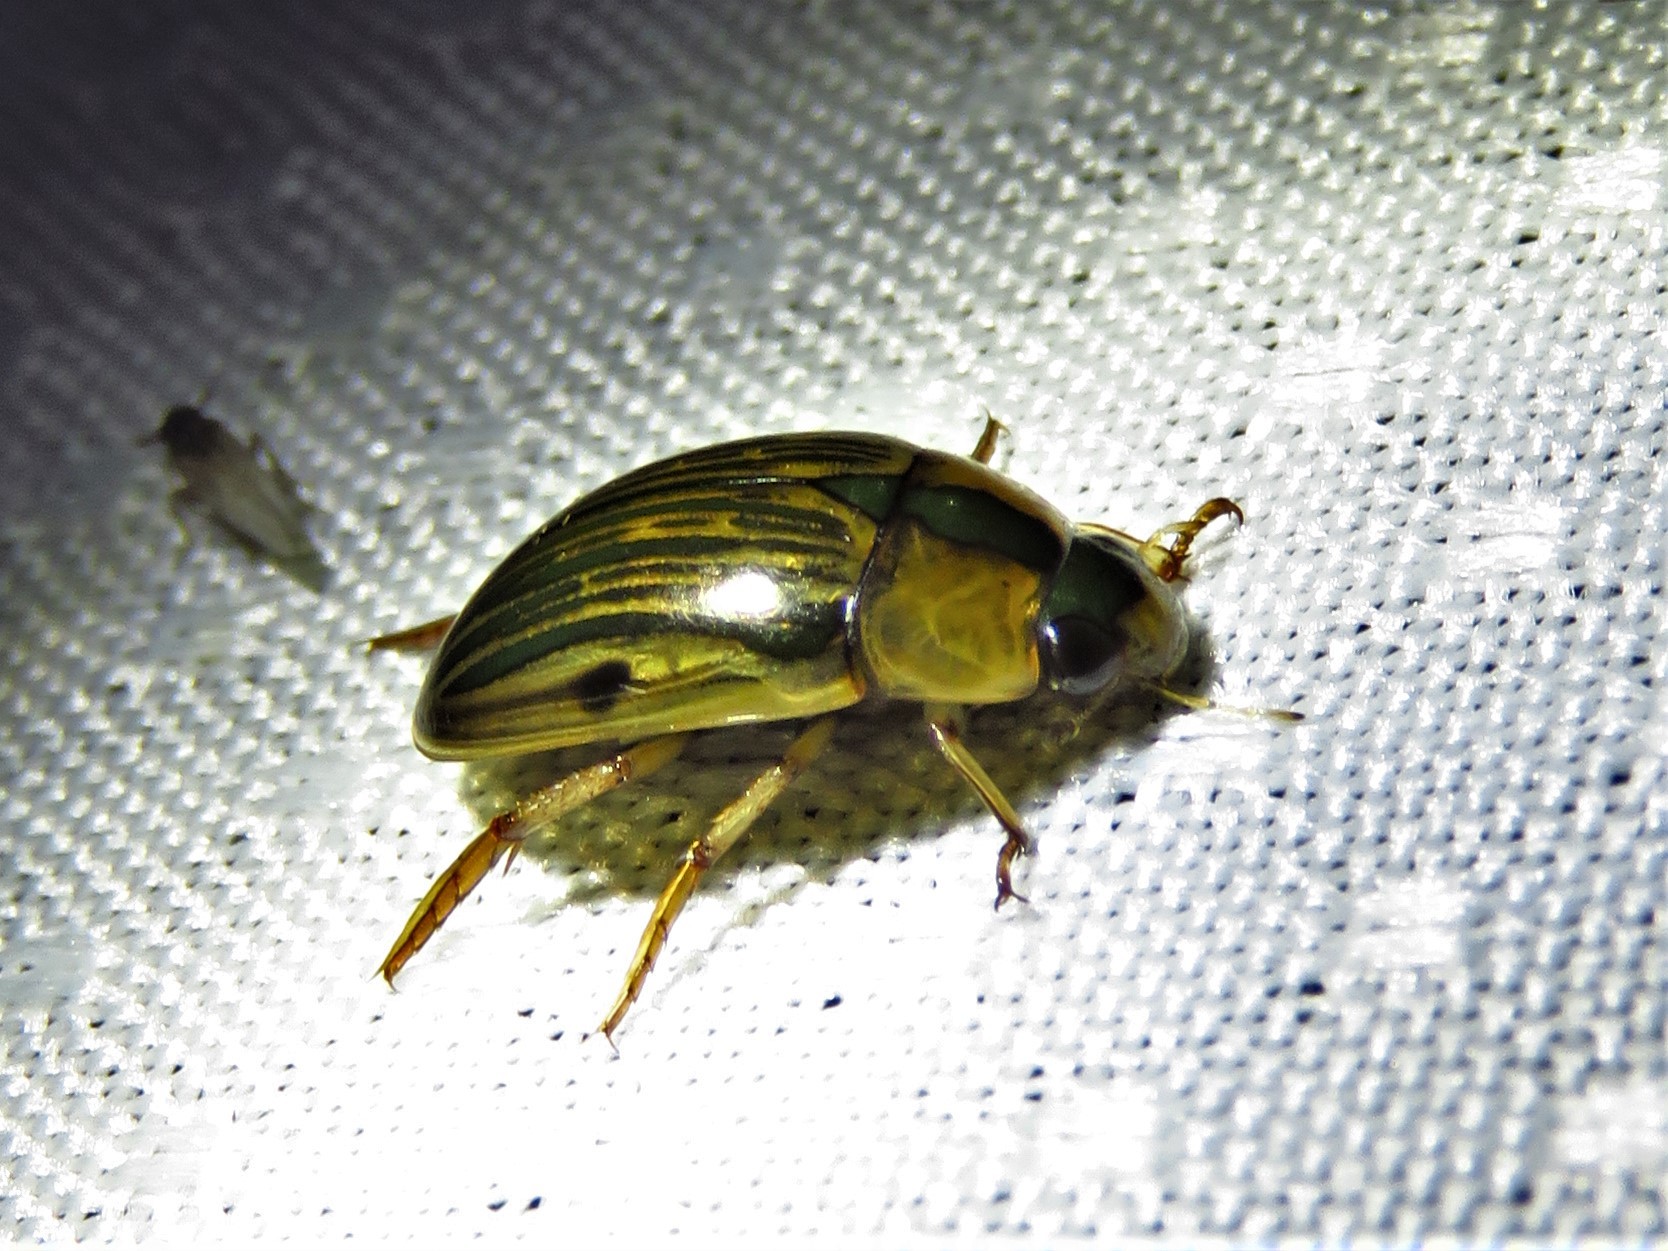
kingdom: Animalia
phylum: Arthropoda
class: Insecta
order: Coleoptera
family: Hydrophilidae
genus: Tropisternus
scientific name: Tropisternus collaris
